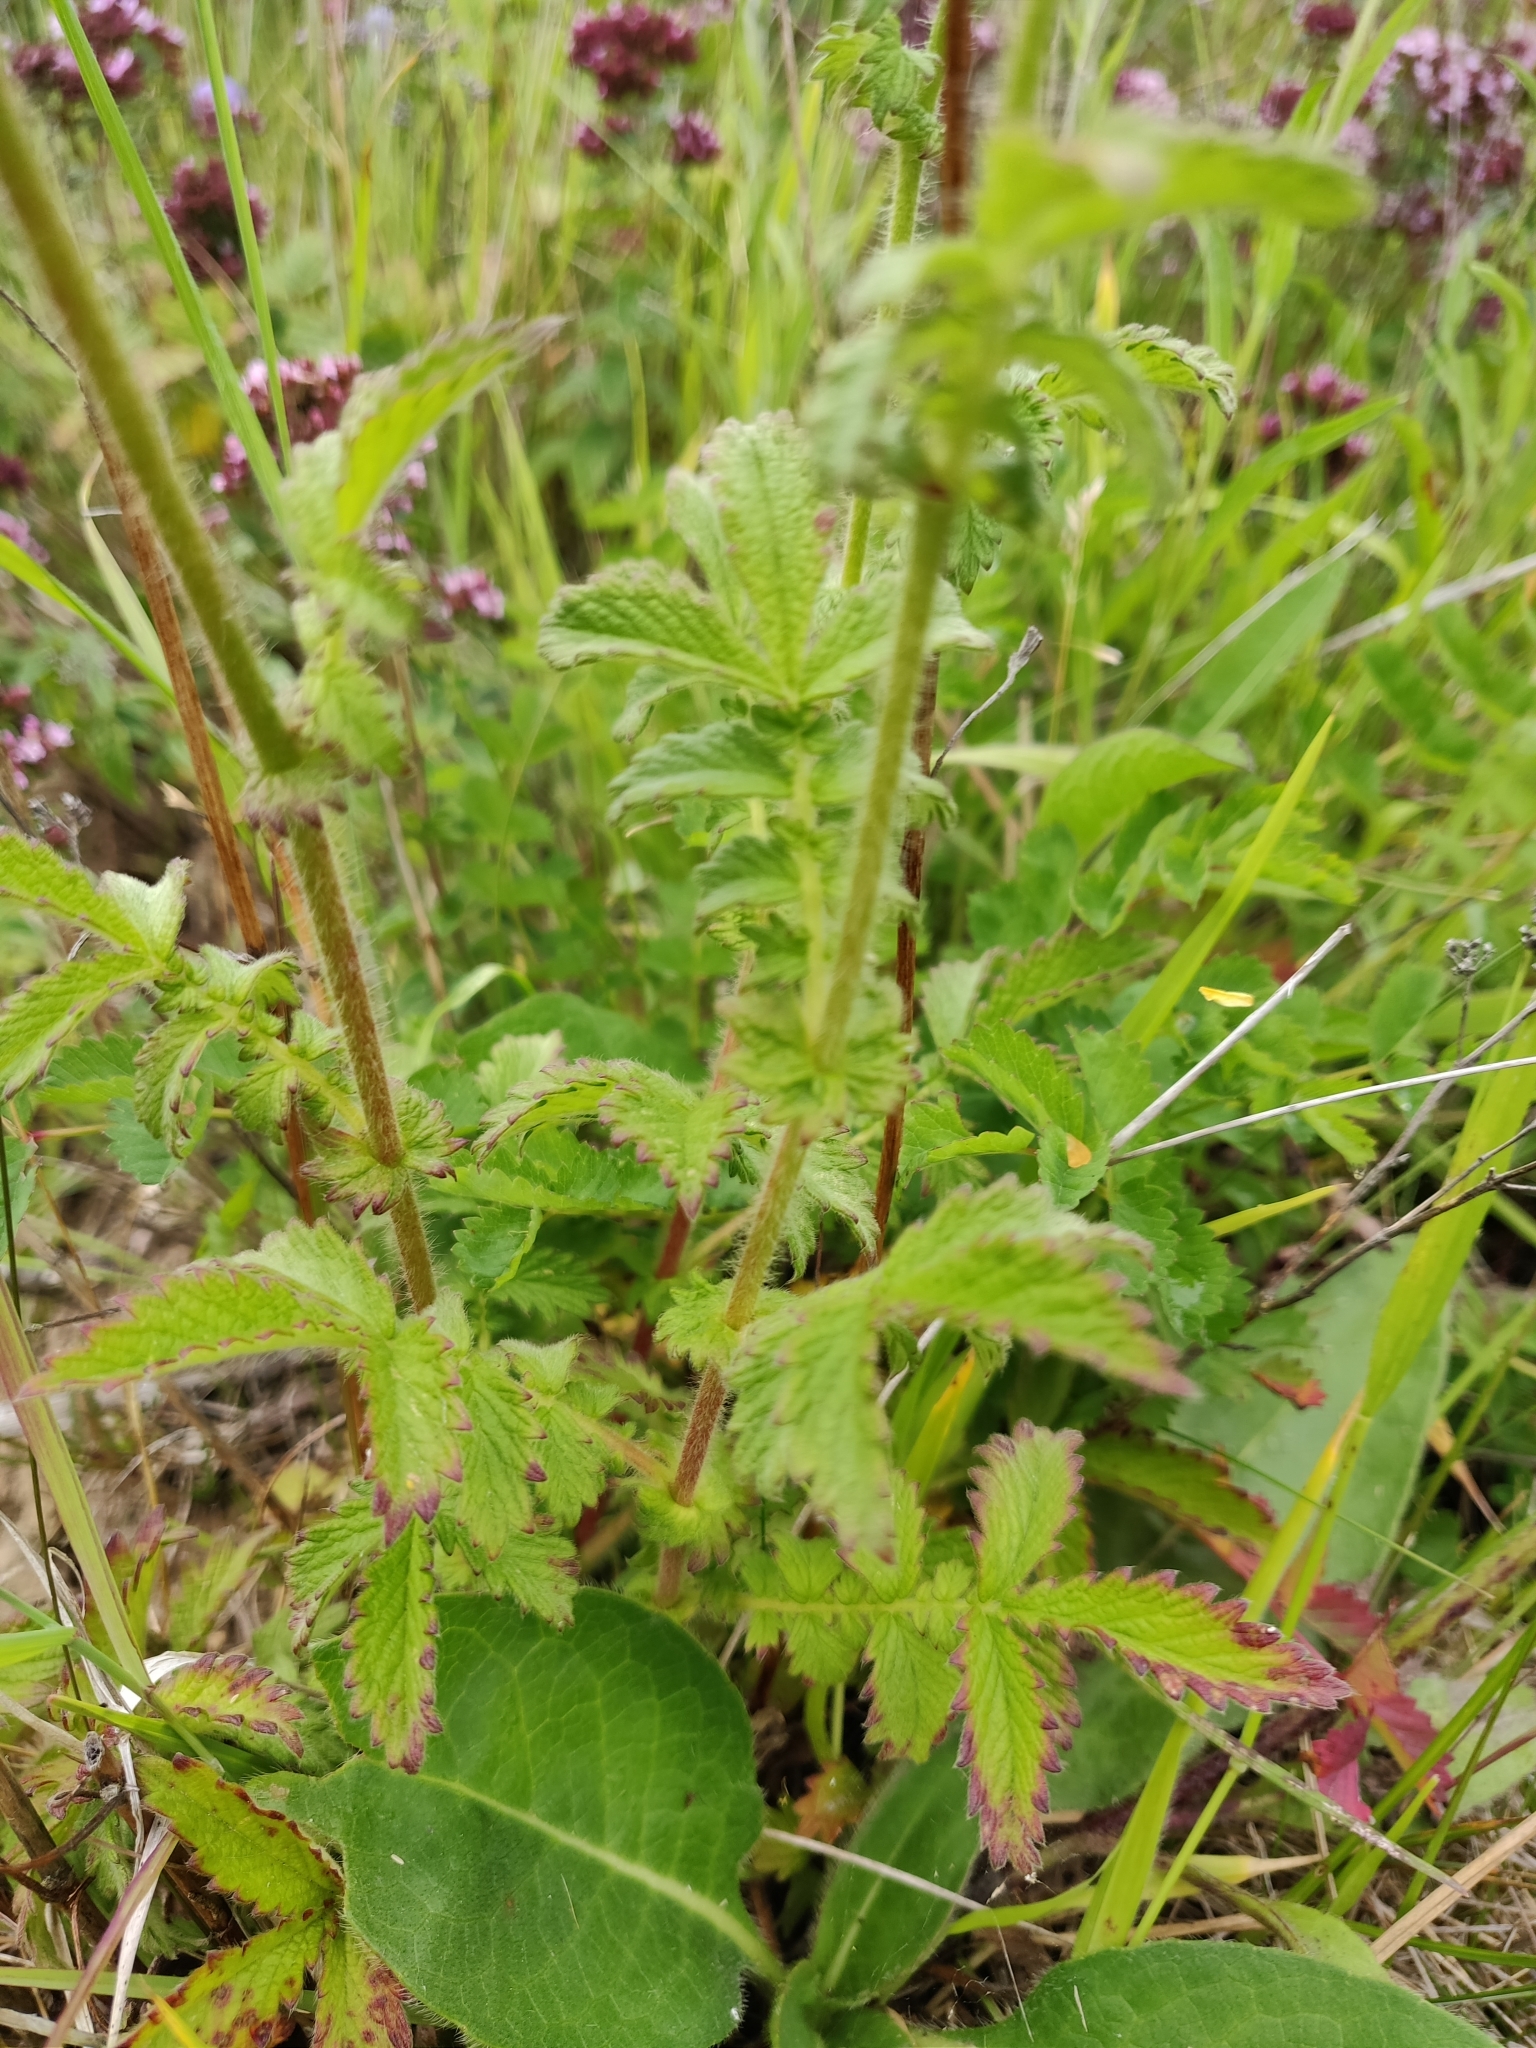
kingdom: Plantae
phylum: Tracheophyta
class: Magnoliopsida
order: Rosales
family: Rosaceae
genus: Agrimonia
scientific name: Agrimonia eupatoria
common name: Agrimony
